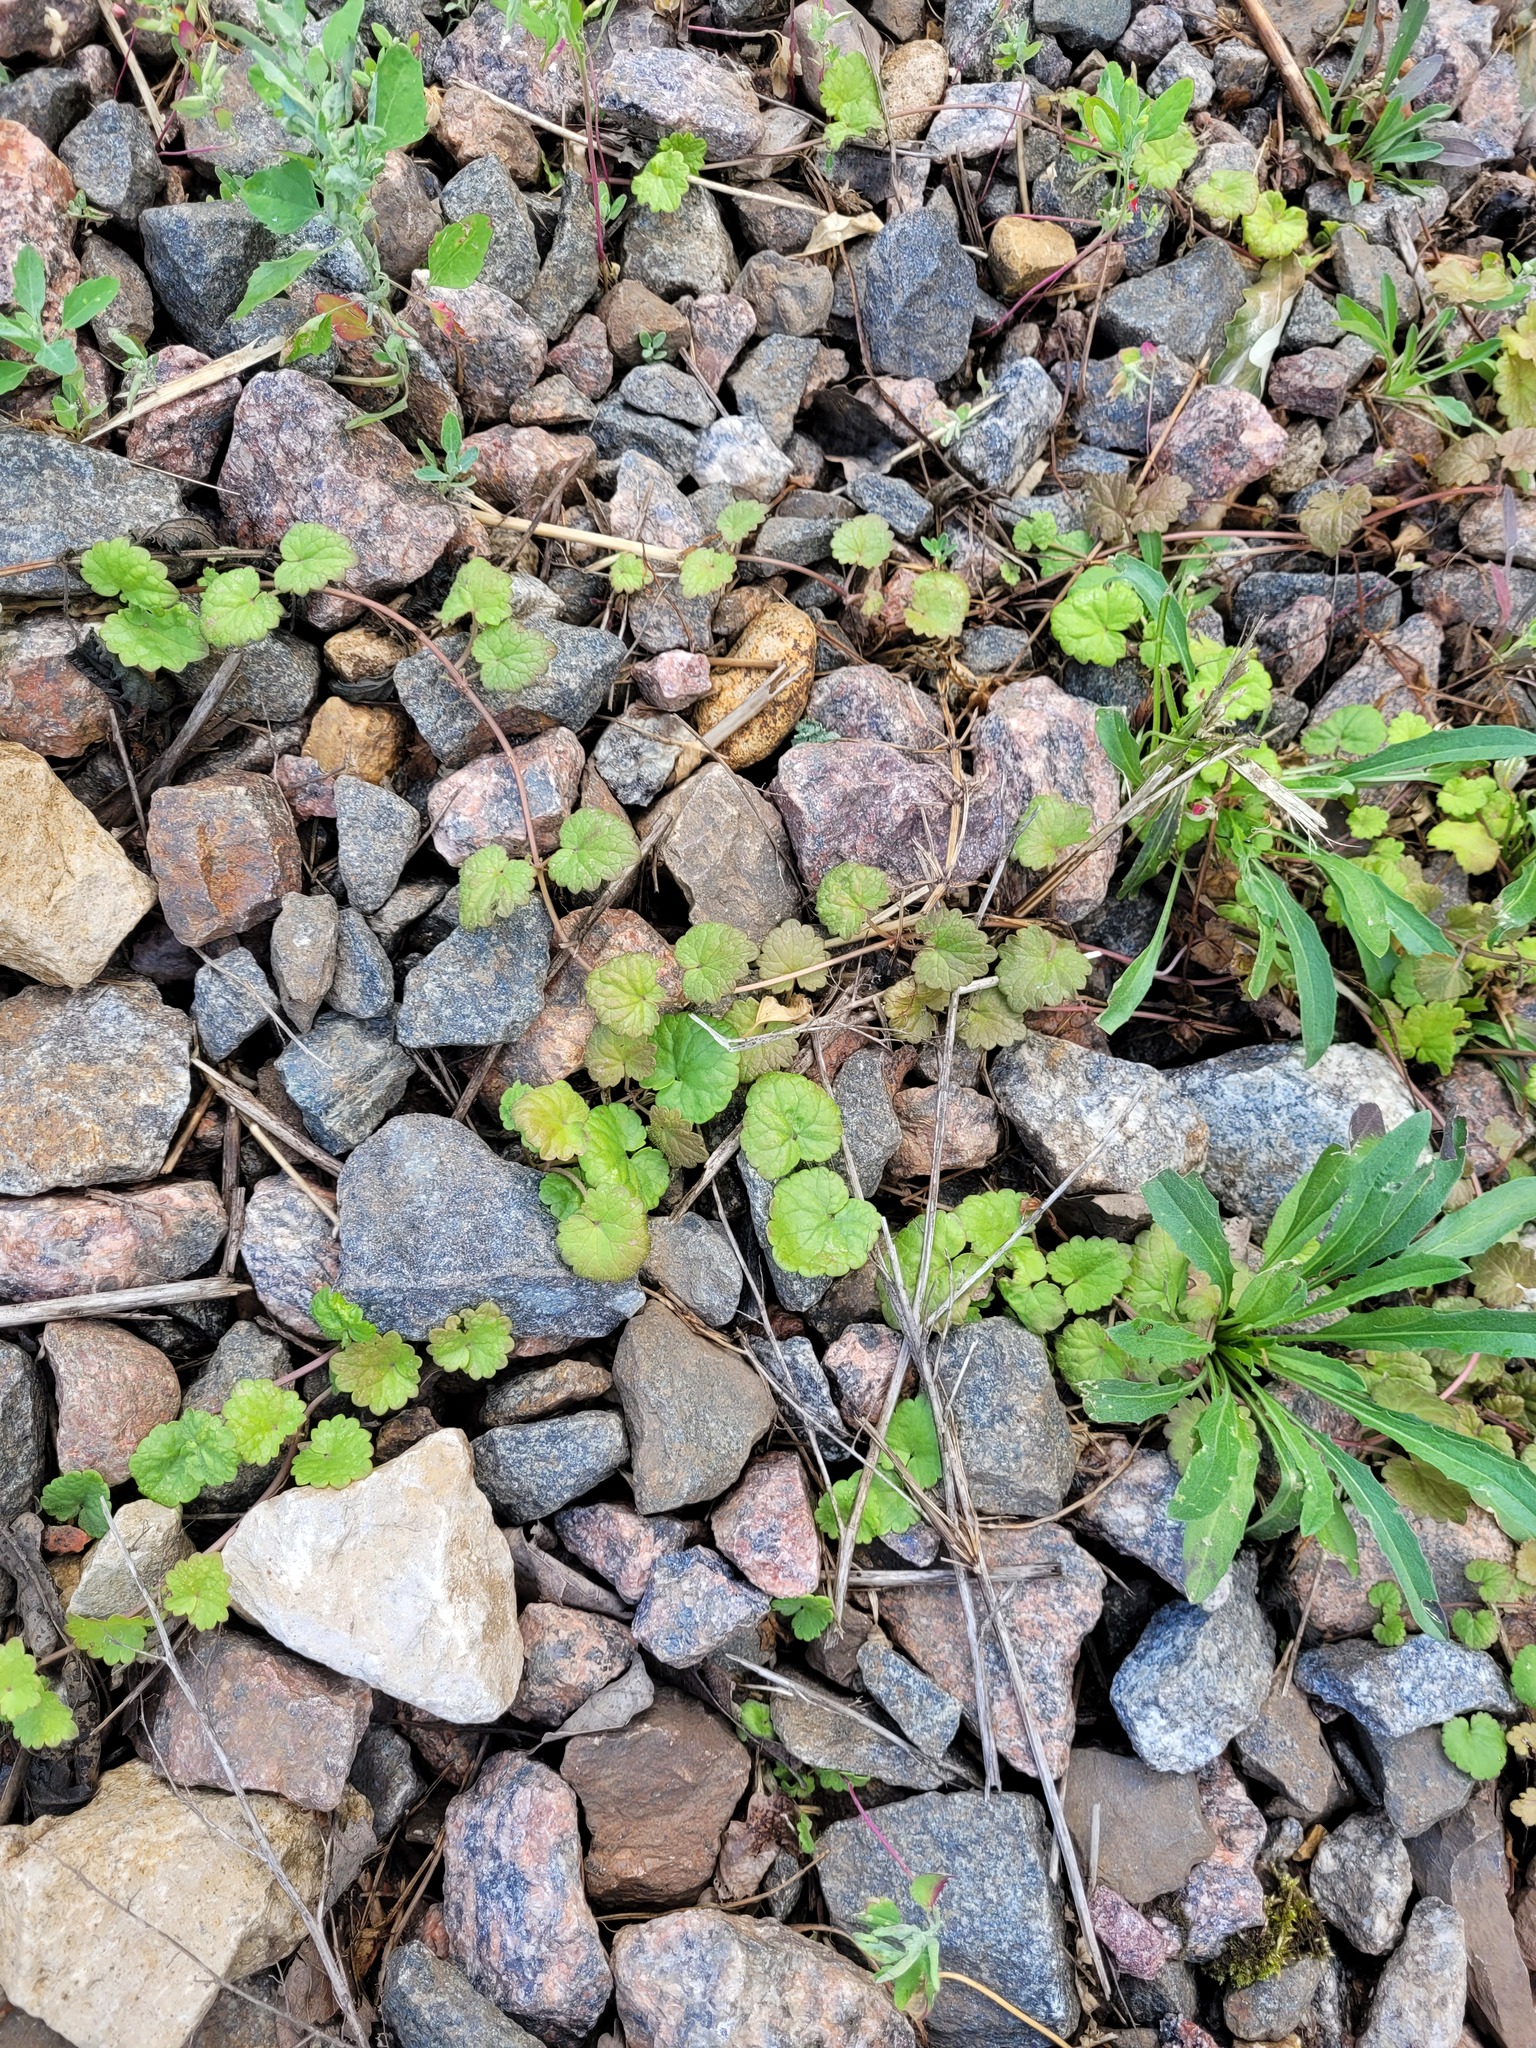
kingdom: Plantae
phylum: Tracheophyta
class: Magnoliopsida
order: Lamiales
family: Lamiaceae
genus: Glechoma
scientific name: Glechoma hederacea
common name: Ground ivy
